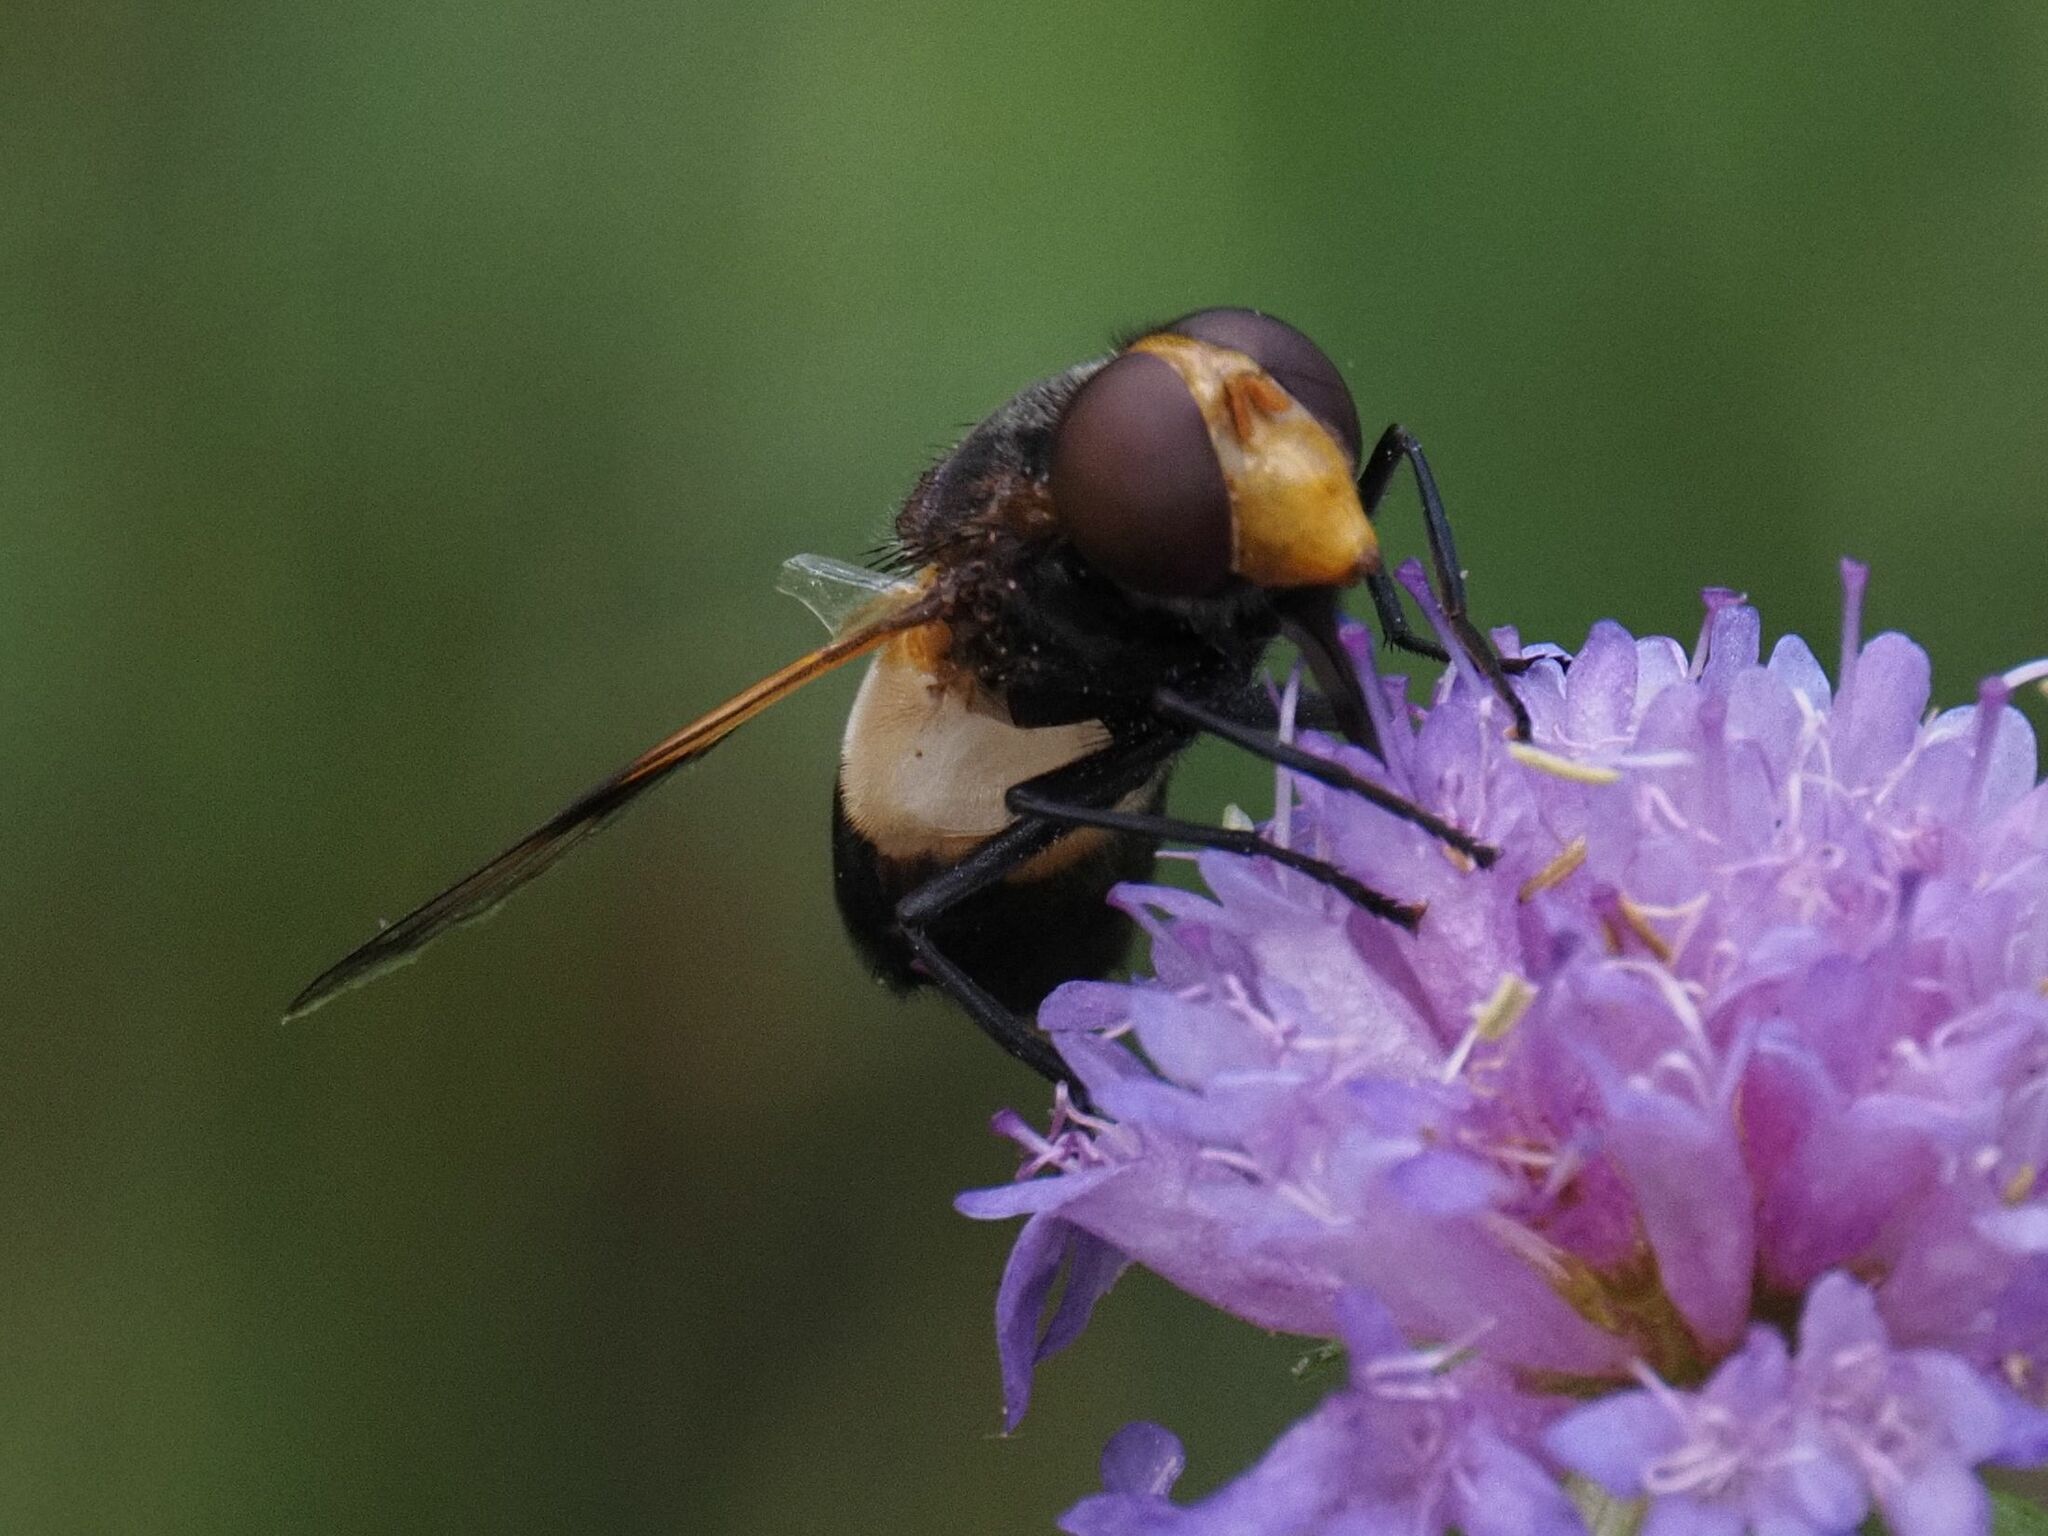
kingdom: Animalia
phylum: Arthropoda
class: Insecta
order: Diptera
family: Syrphidae
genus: Volucella
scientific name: Volucella pellucens
